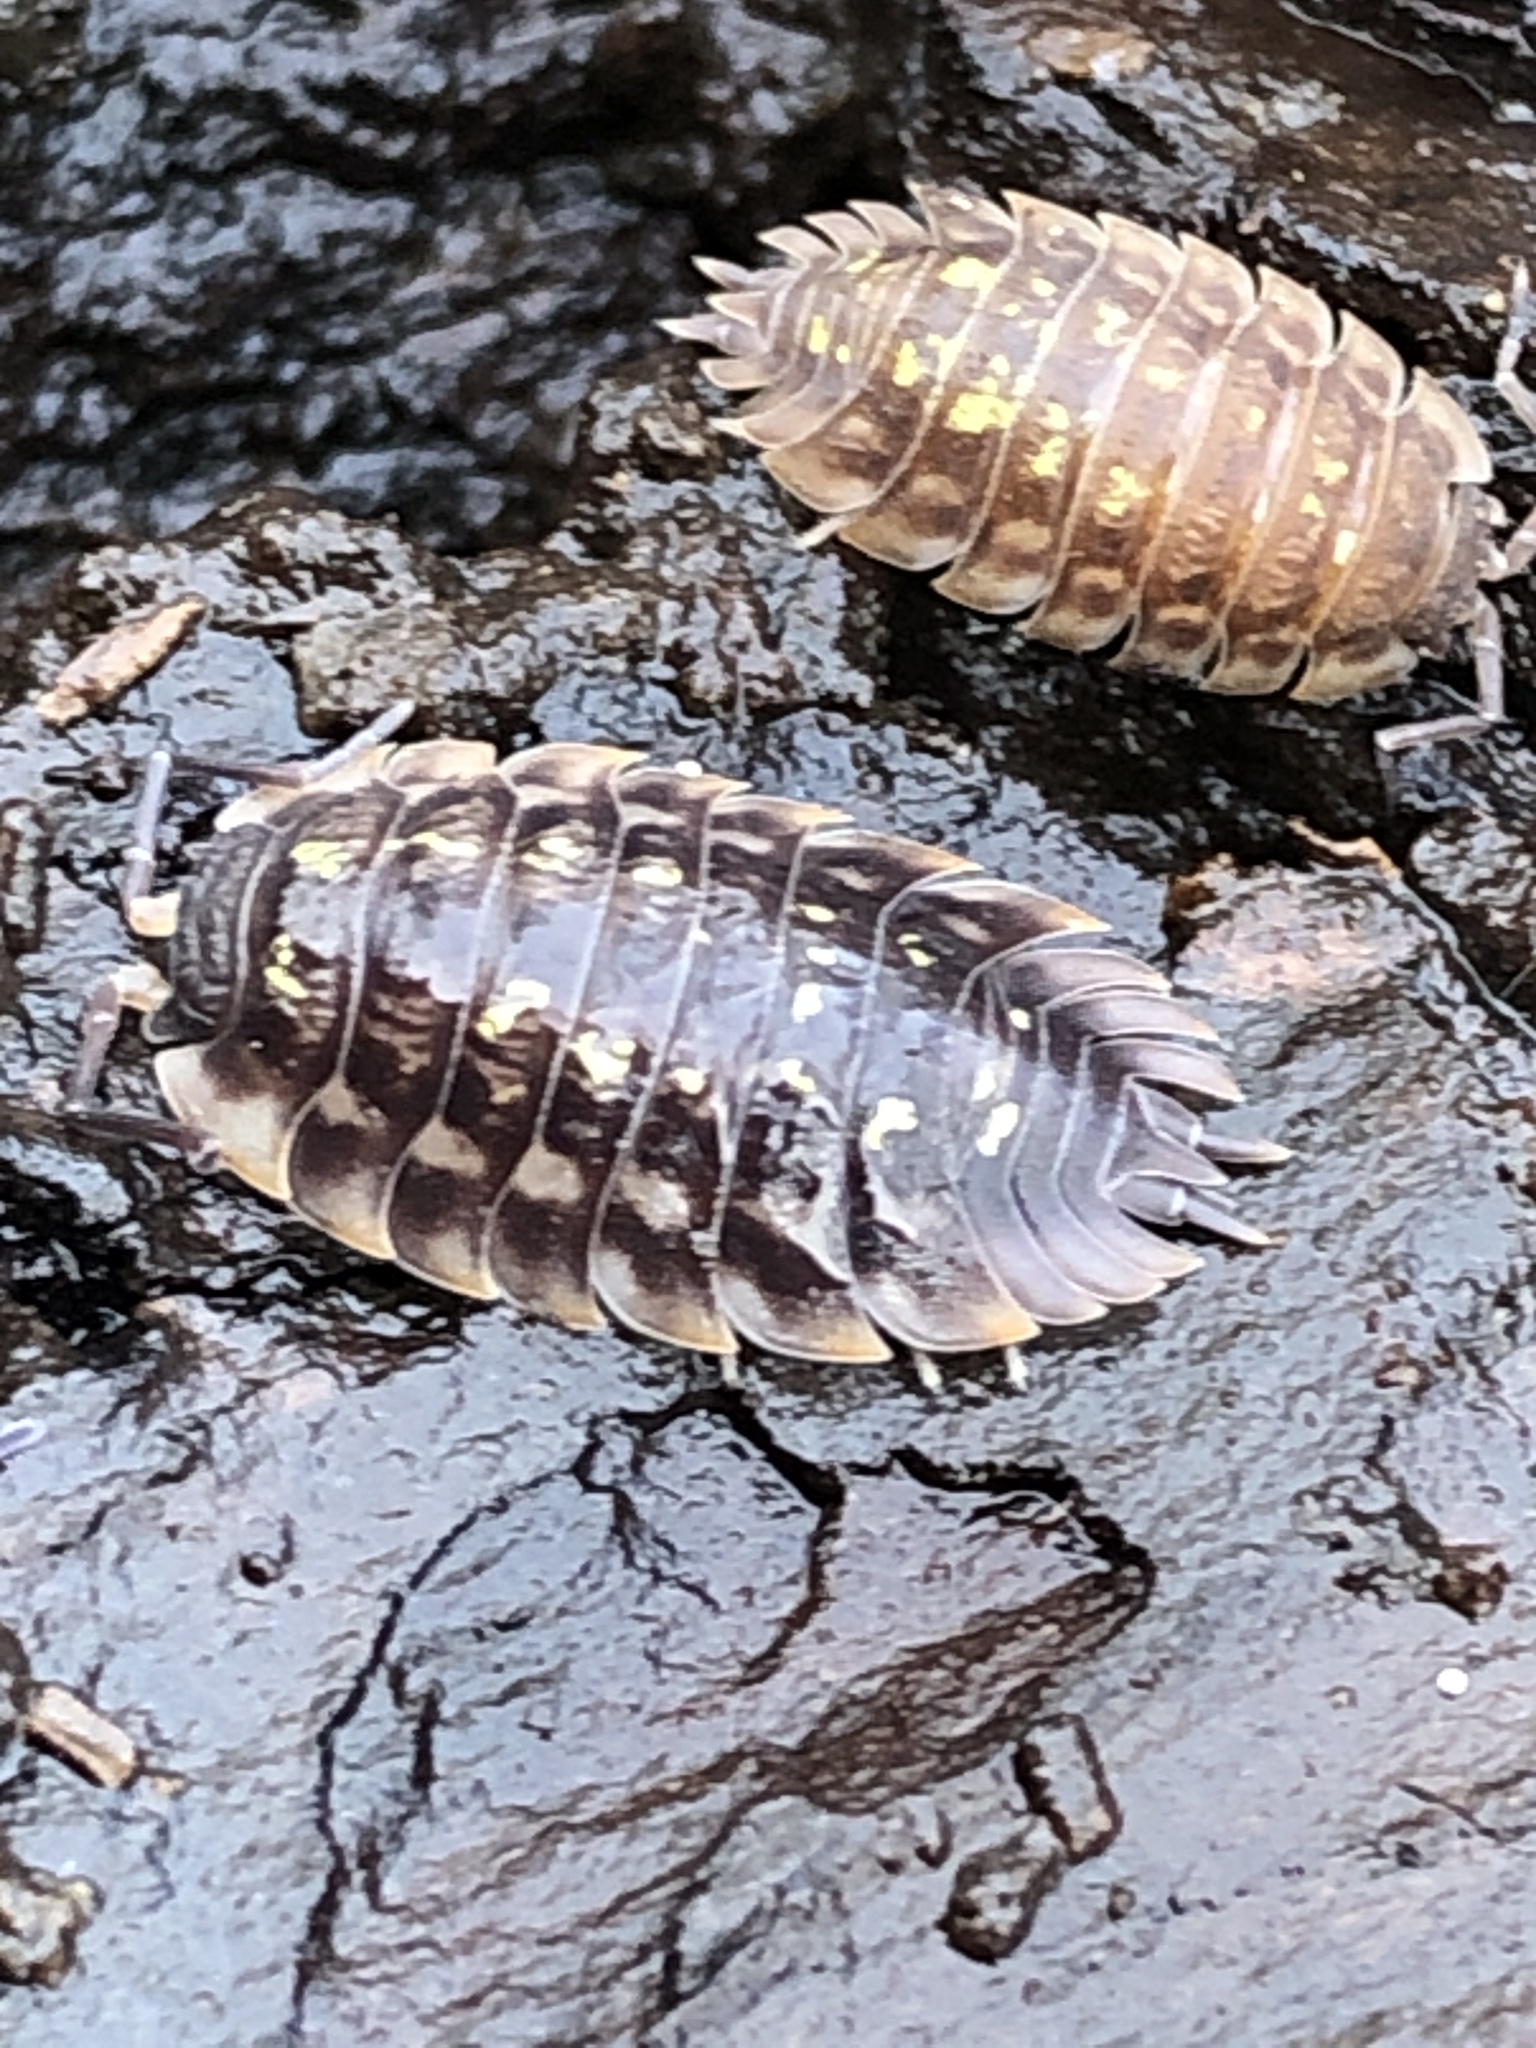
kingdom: Animalia
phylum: Arthropoda
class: Malacostraca
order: Isopoda
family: Oniscidae
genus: Oniscus
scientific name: Oniscus asellus
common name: Common shiny woodlouse
